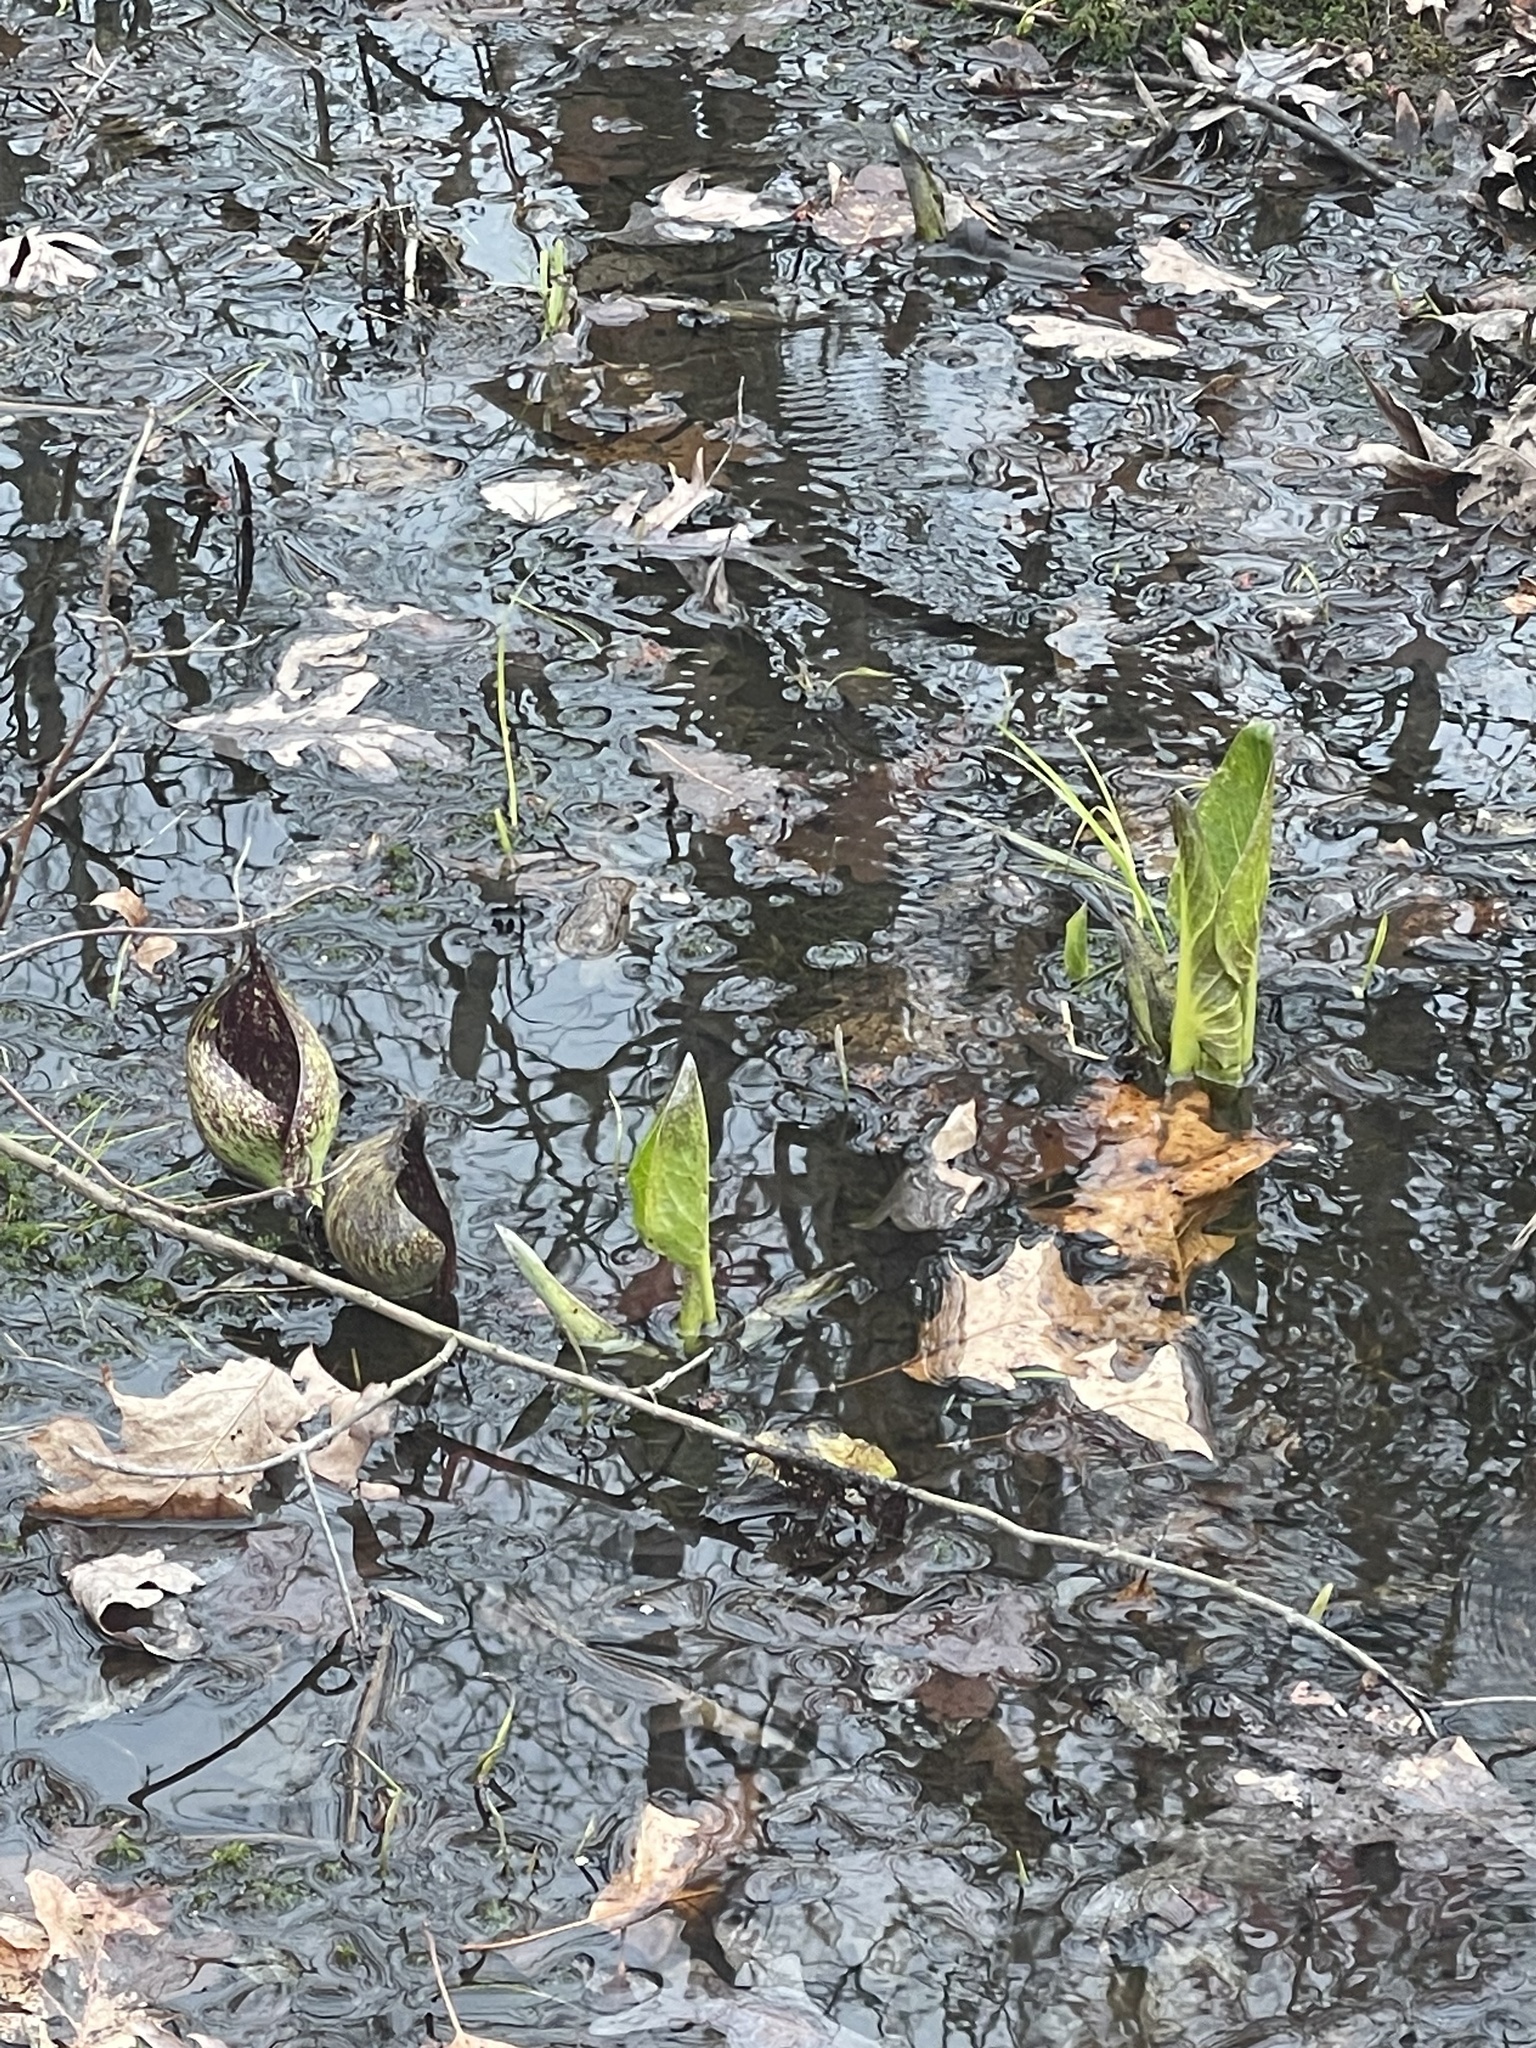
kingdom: Plantae
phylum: Tracheophyta
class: Liliopsida
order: Alismatales
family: Araceae
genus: Symplocarpus
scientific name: Symplocarpus foetidus
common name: Eastern skunk cabbage
